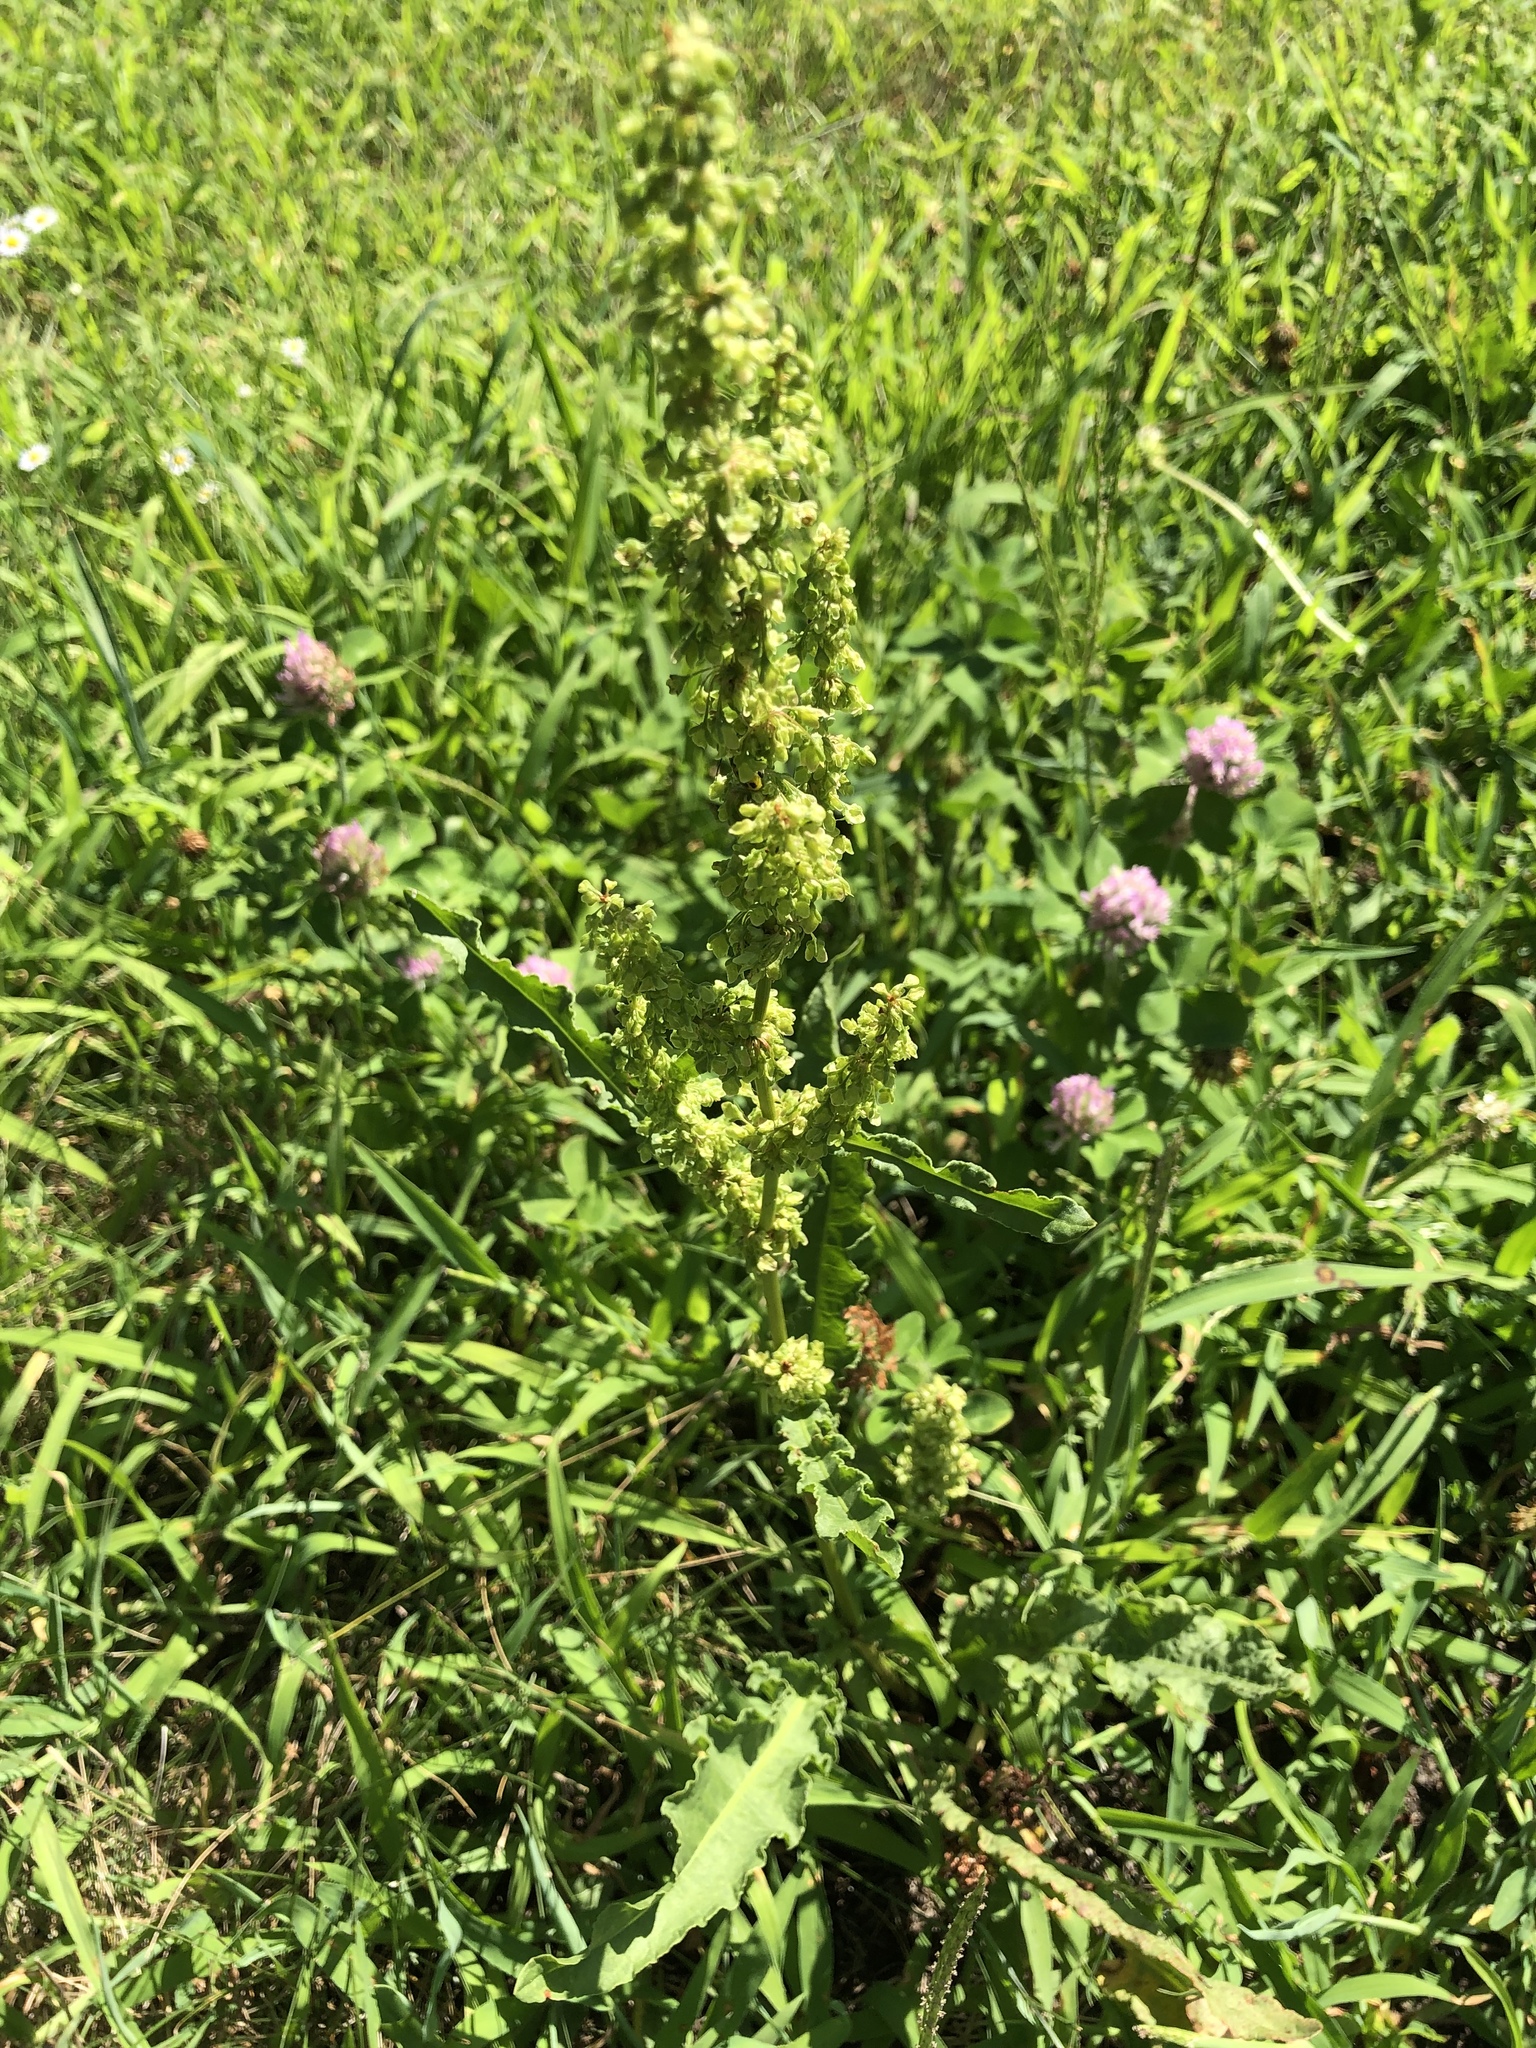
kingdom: Plantae
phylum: Tracheophyta
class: Magnoliopsida
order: Caryophyllales
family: Polygonaceae
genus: Rumex
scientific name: Rumex crispus
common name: Curled dock
